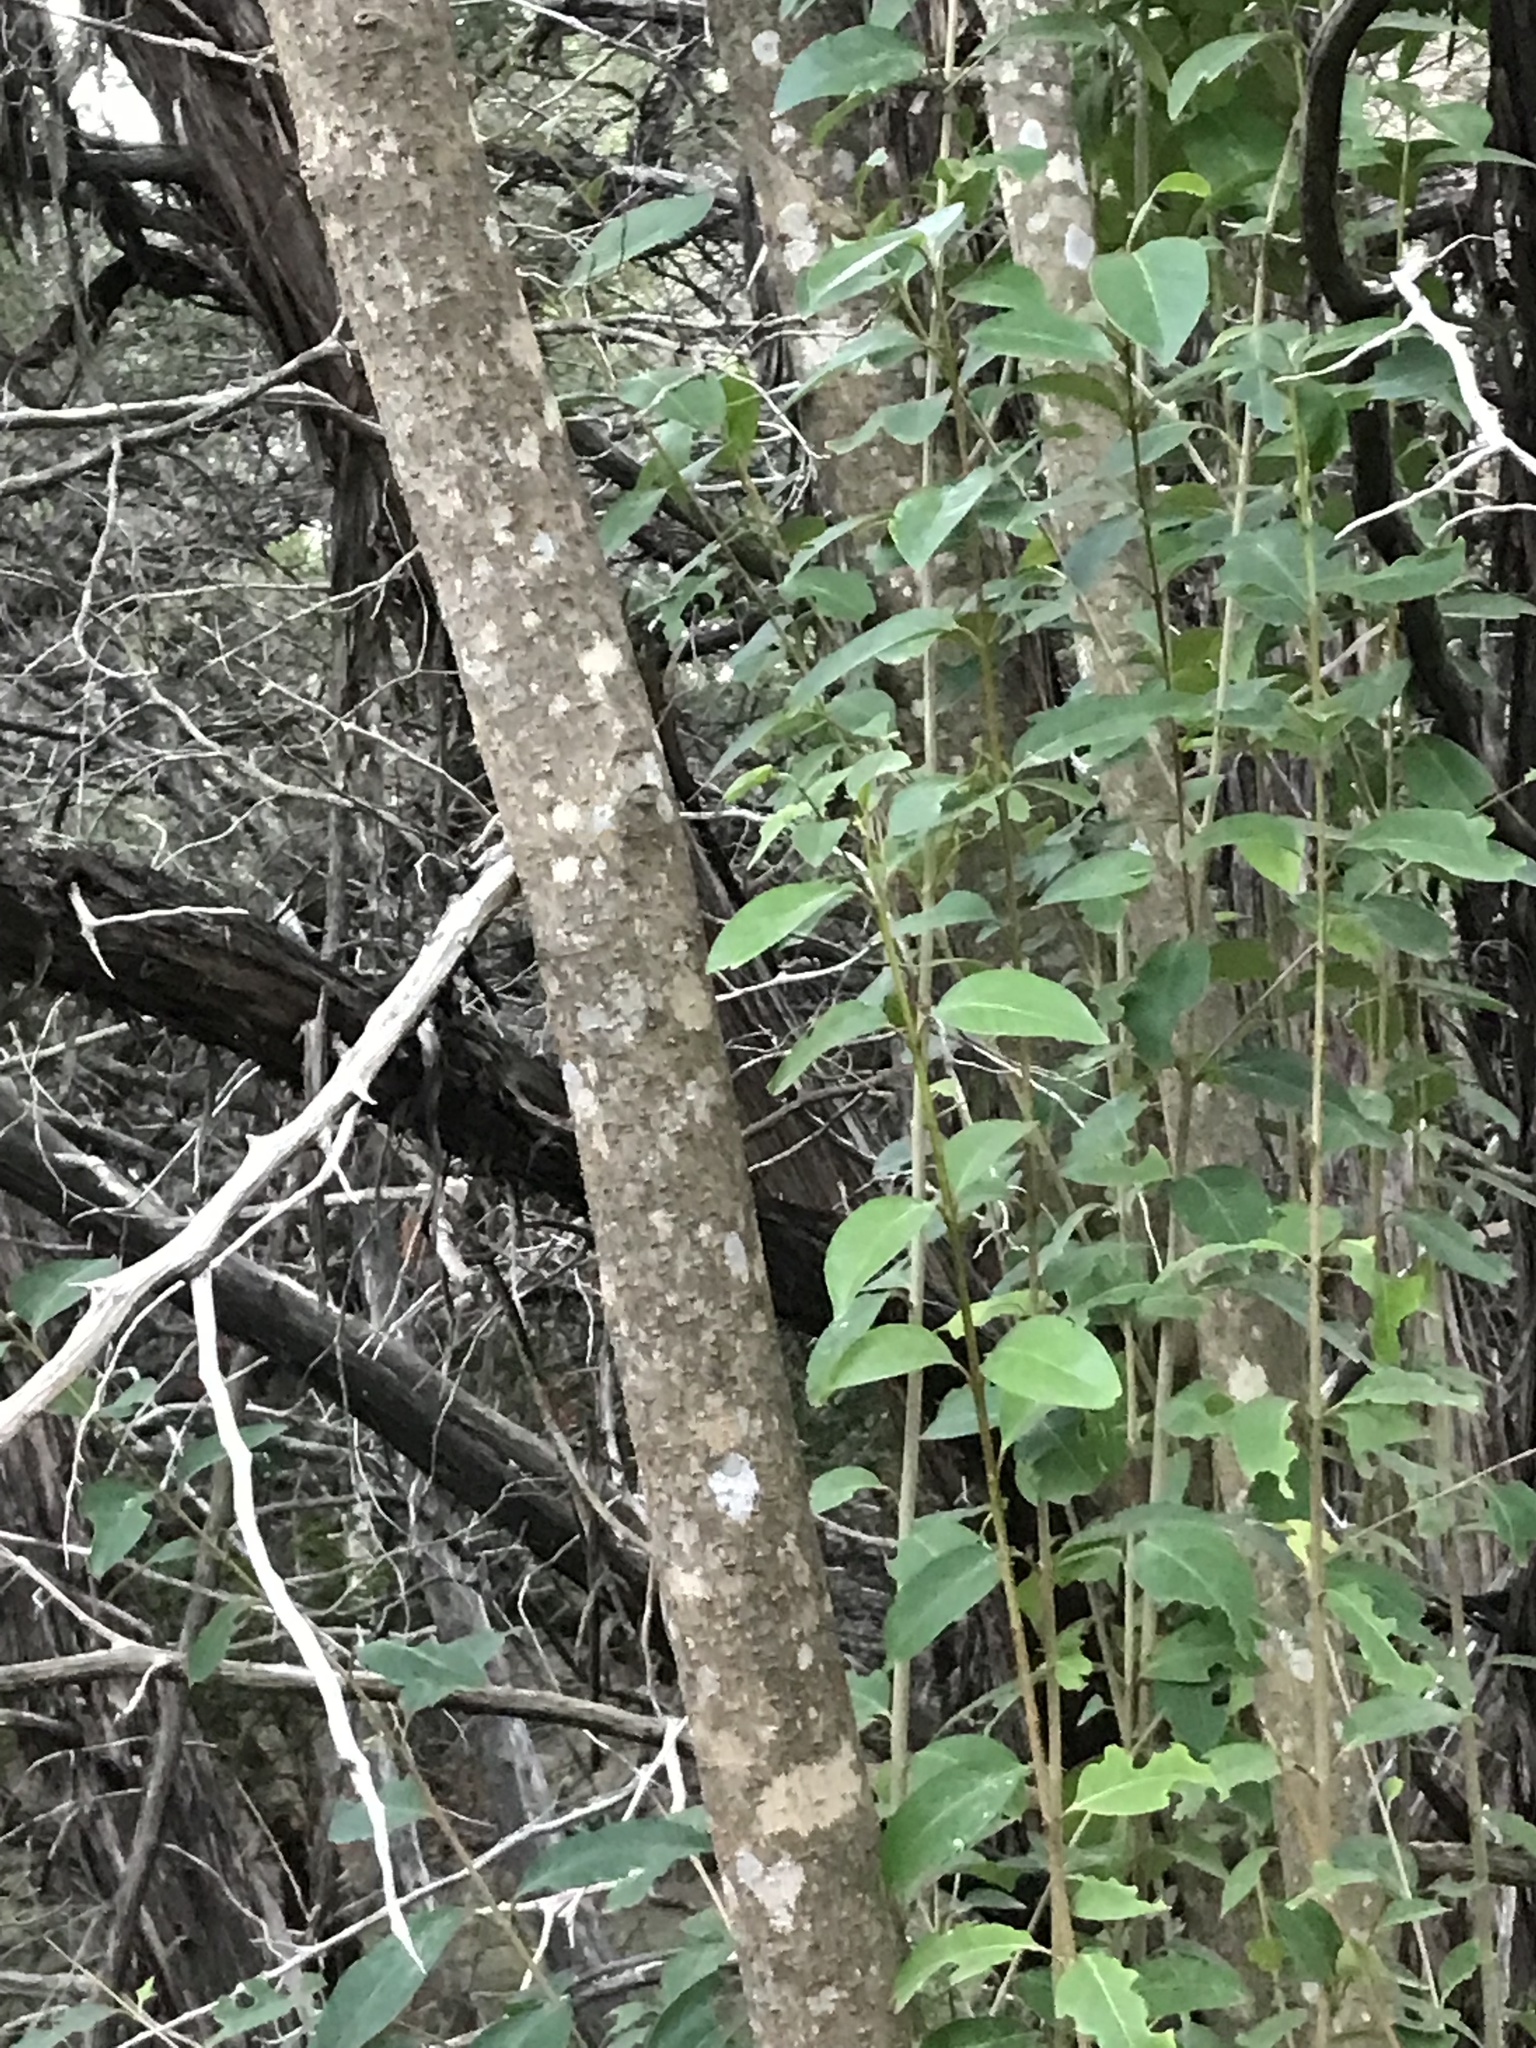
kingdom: Plantae
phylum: Tracheophyta
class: Magnoliopsida
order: Lamiales
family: Oleaceae
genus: Ligustrum
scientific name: Ligustrum lucidum
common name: Glossy privet
